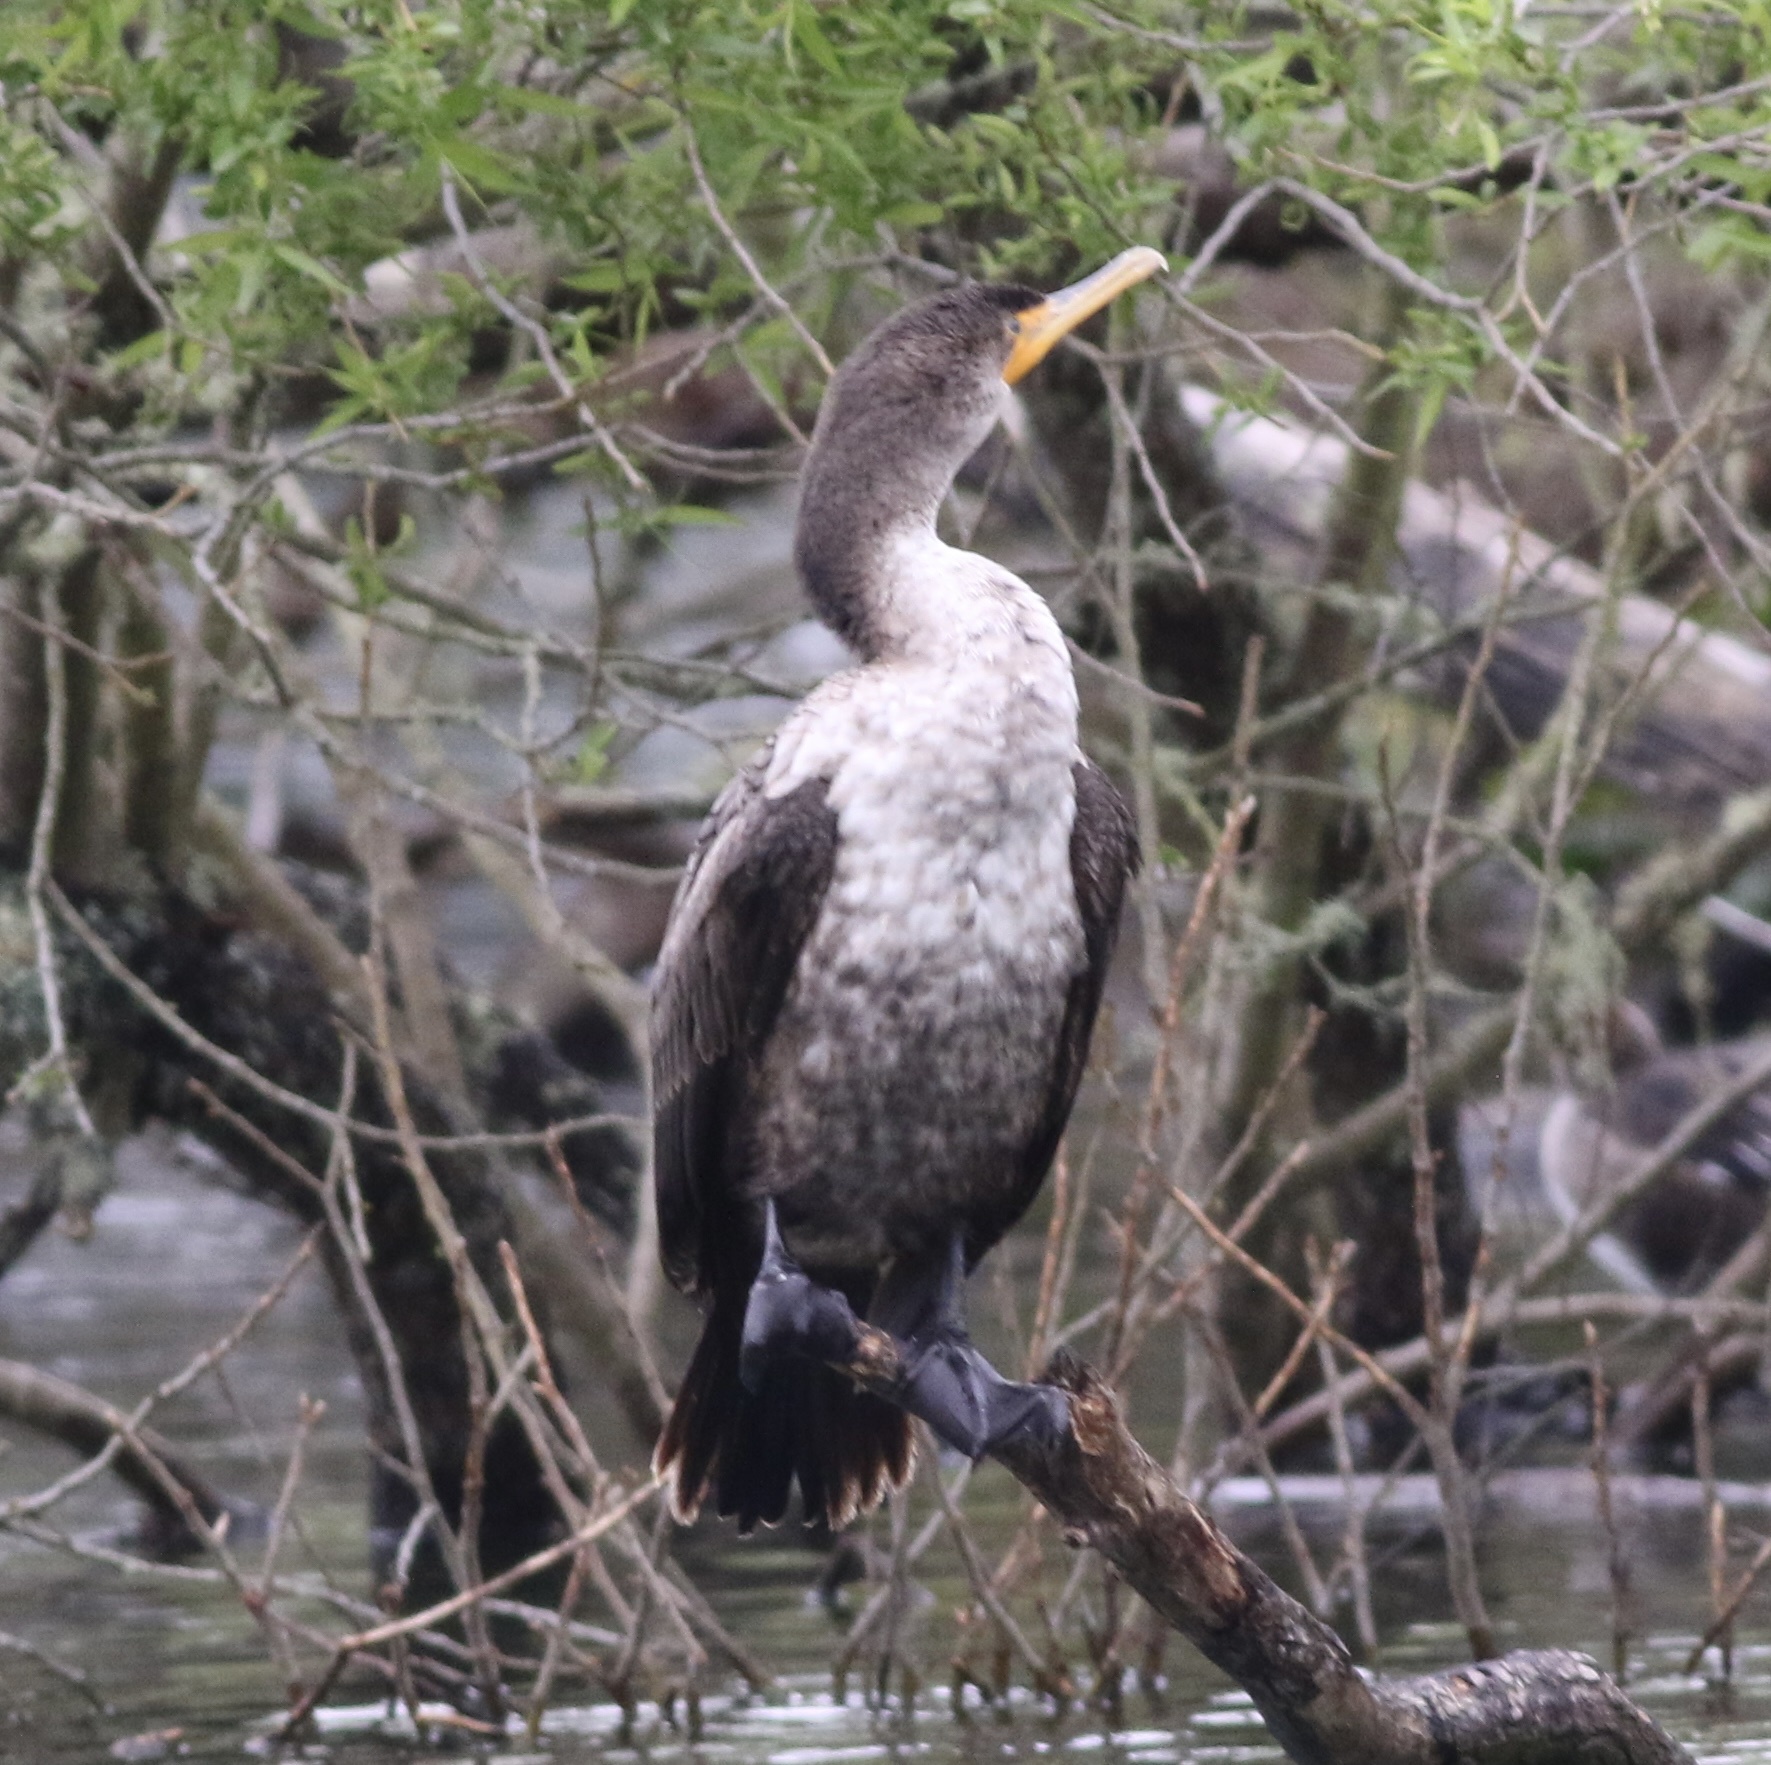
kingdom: Animalia
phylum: Chordata
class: Aves
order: Suliformes
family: Phalacrocoracidae
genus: Phalacrocorax
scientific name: Phalacrocorax auritus
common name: Double-crested cormorant
